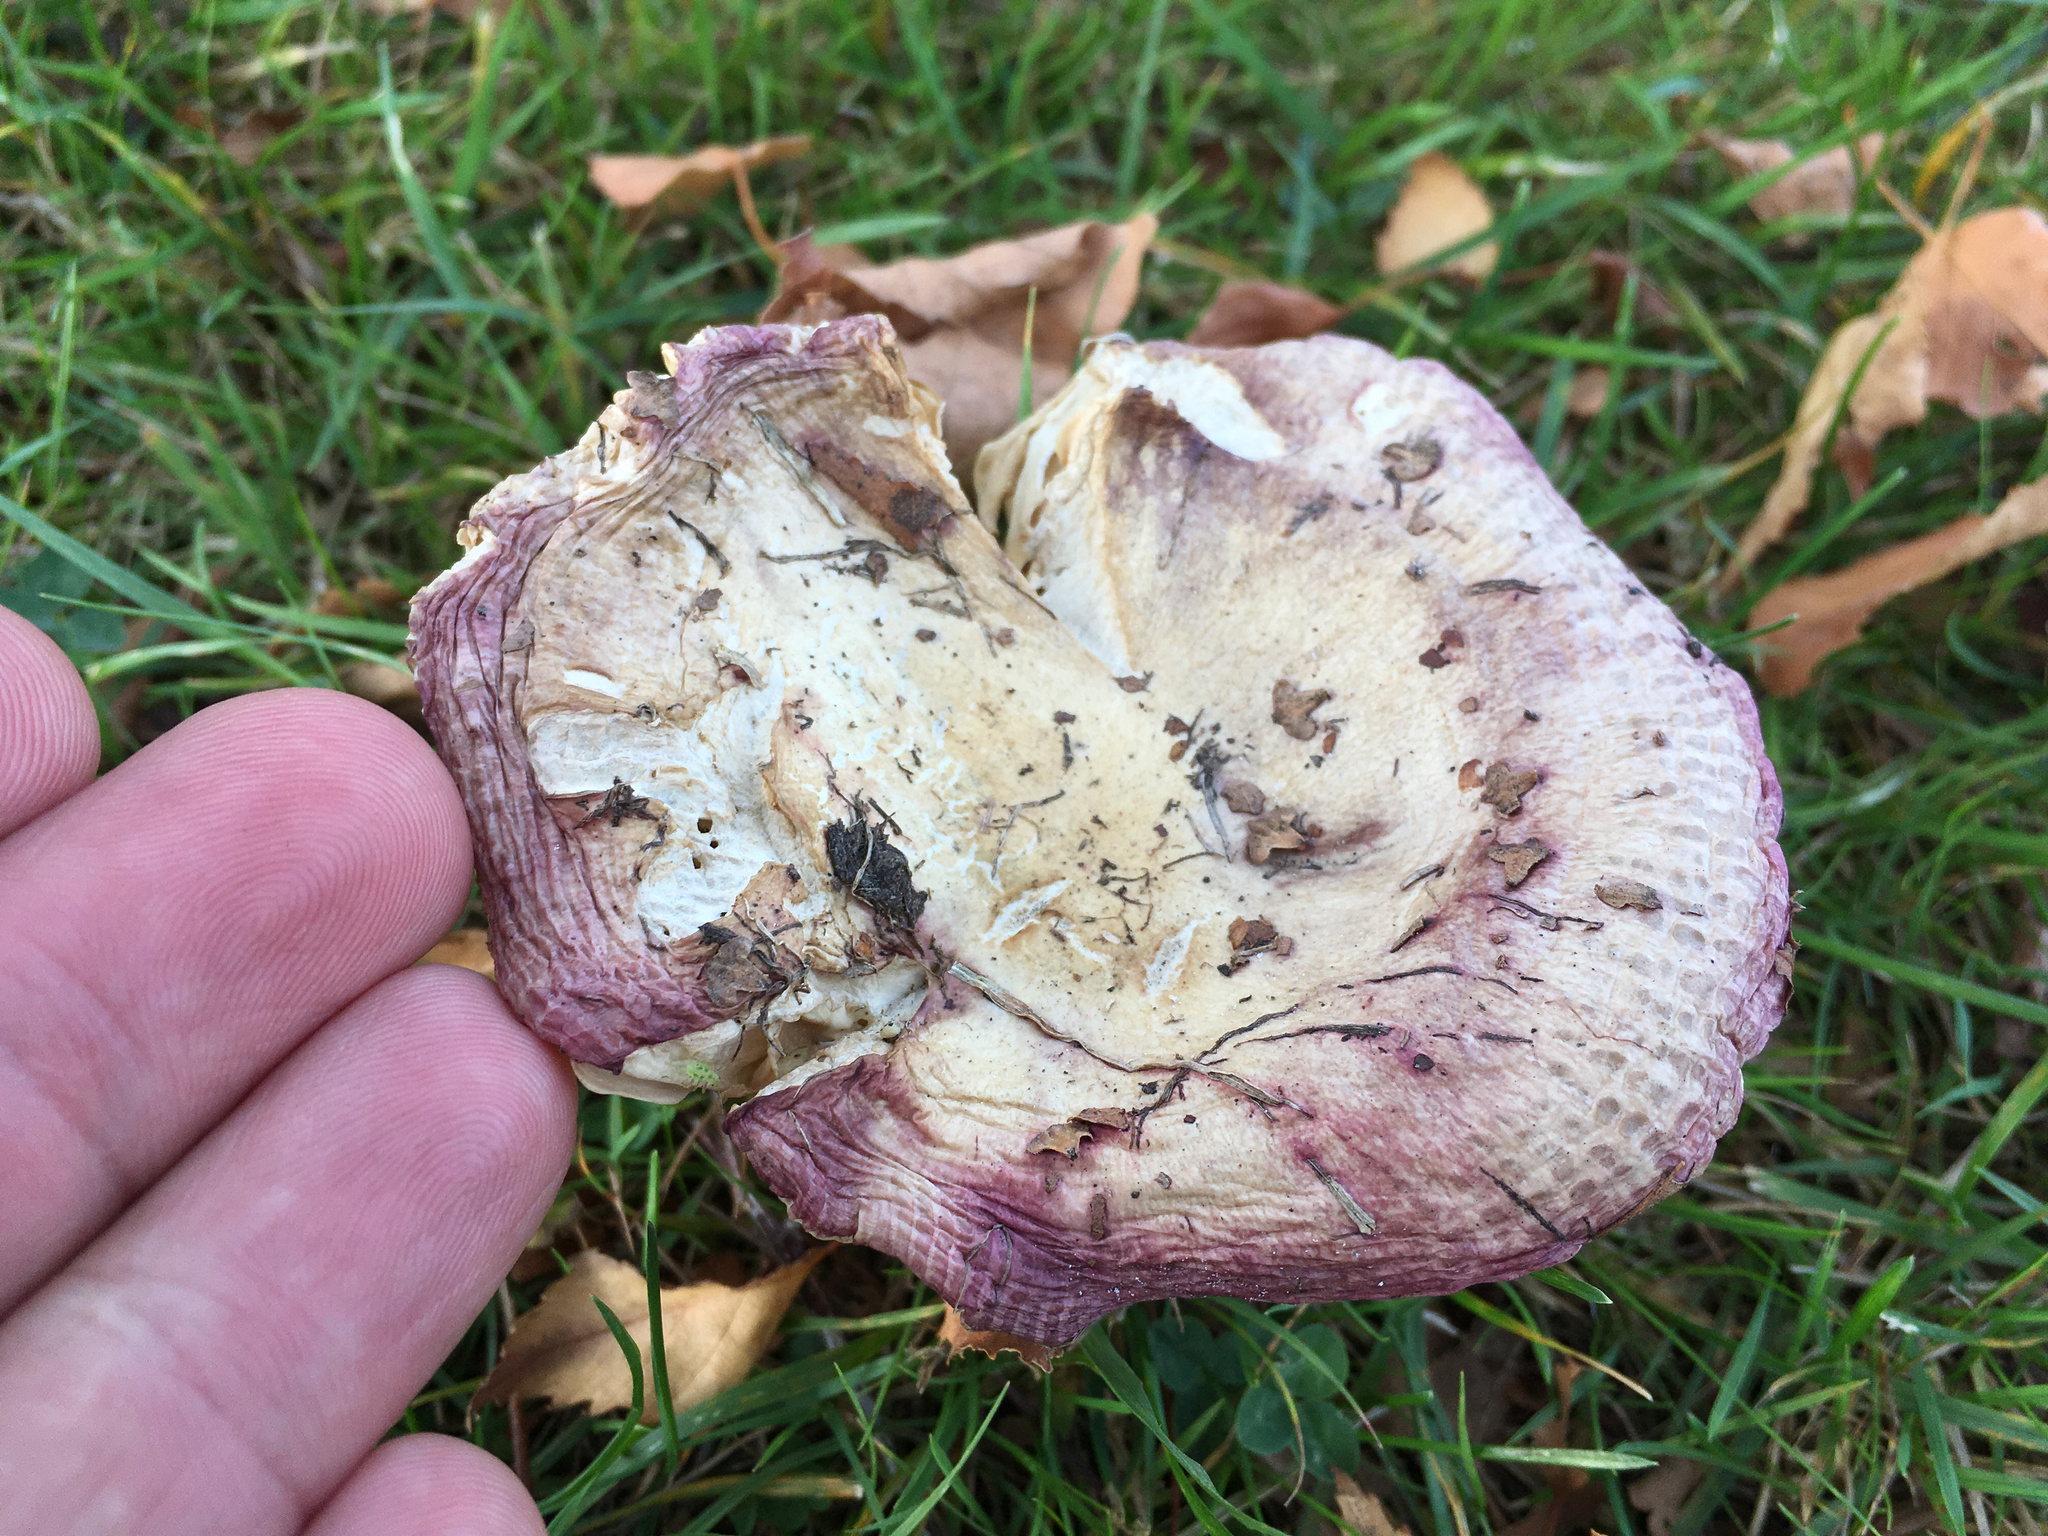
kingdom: Fungi
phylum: Basidiomycota
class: Agaricomycetes
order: Russulales
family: Russulaceae
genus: Russula
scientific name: Russula nitida
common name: Purple swamp brittlegill
